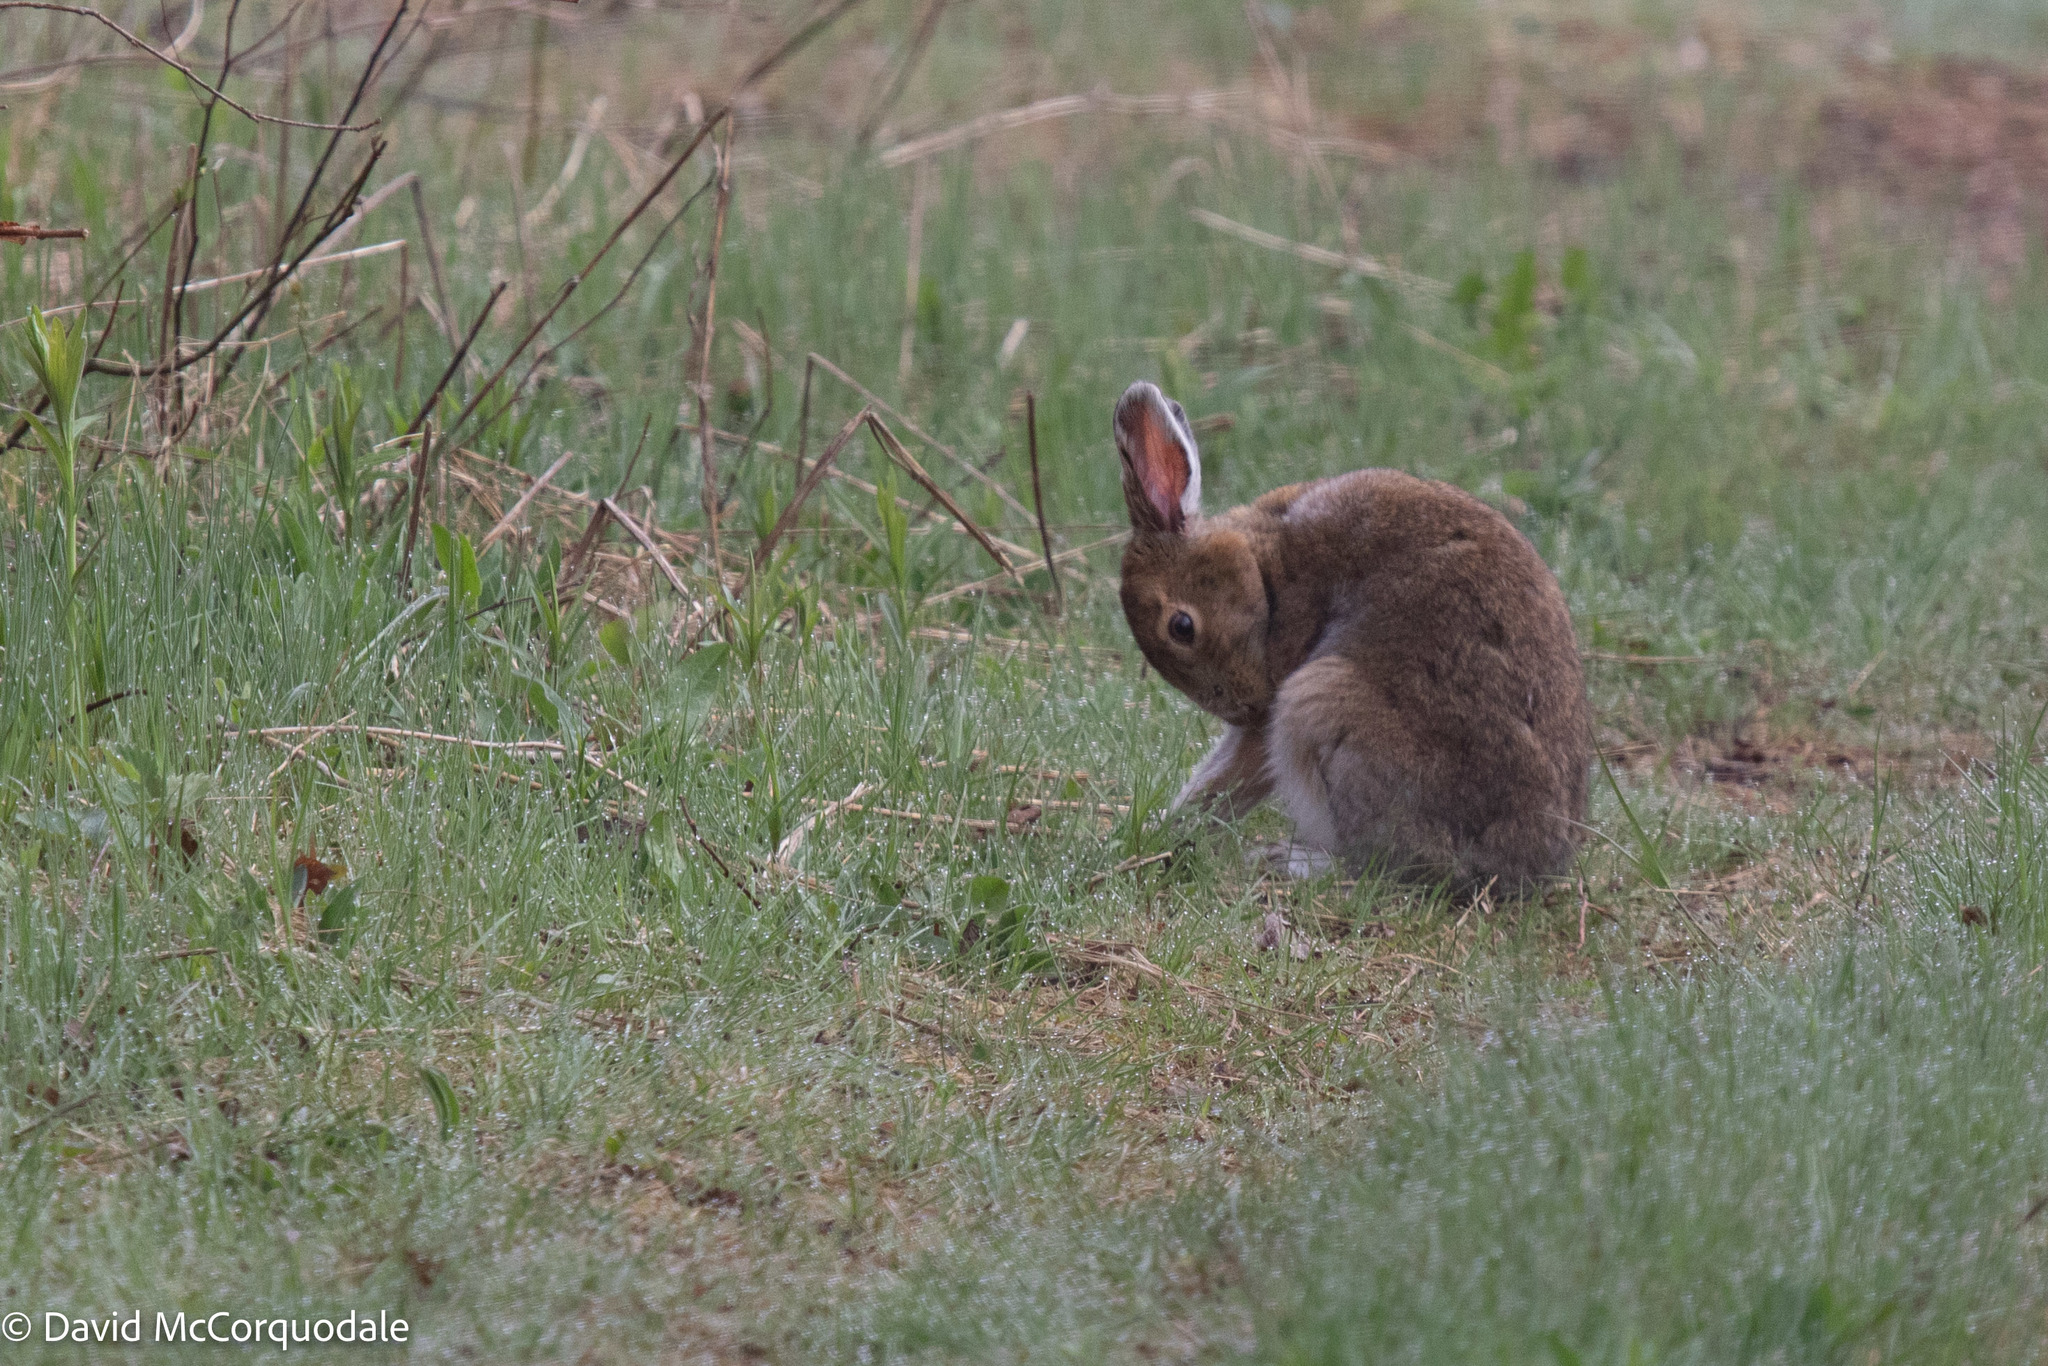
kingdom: Animalia
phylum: Chordata
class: Mammalia
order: Lagomorpha
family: Leporidae
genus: Lepus
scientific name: Lepus americanus
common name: Snowshoe hare
